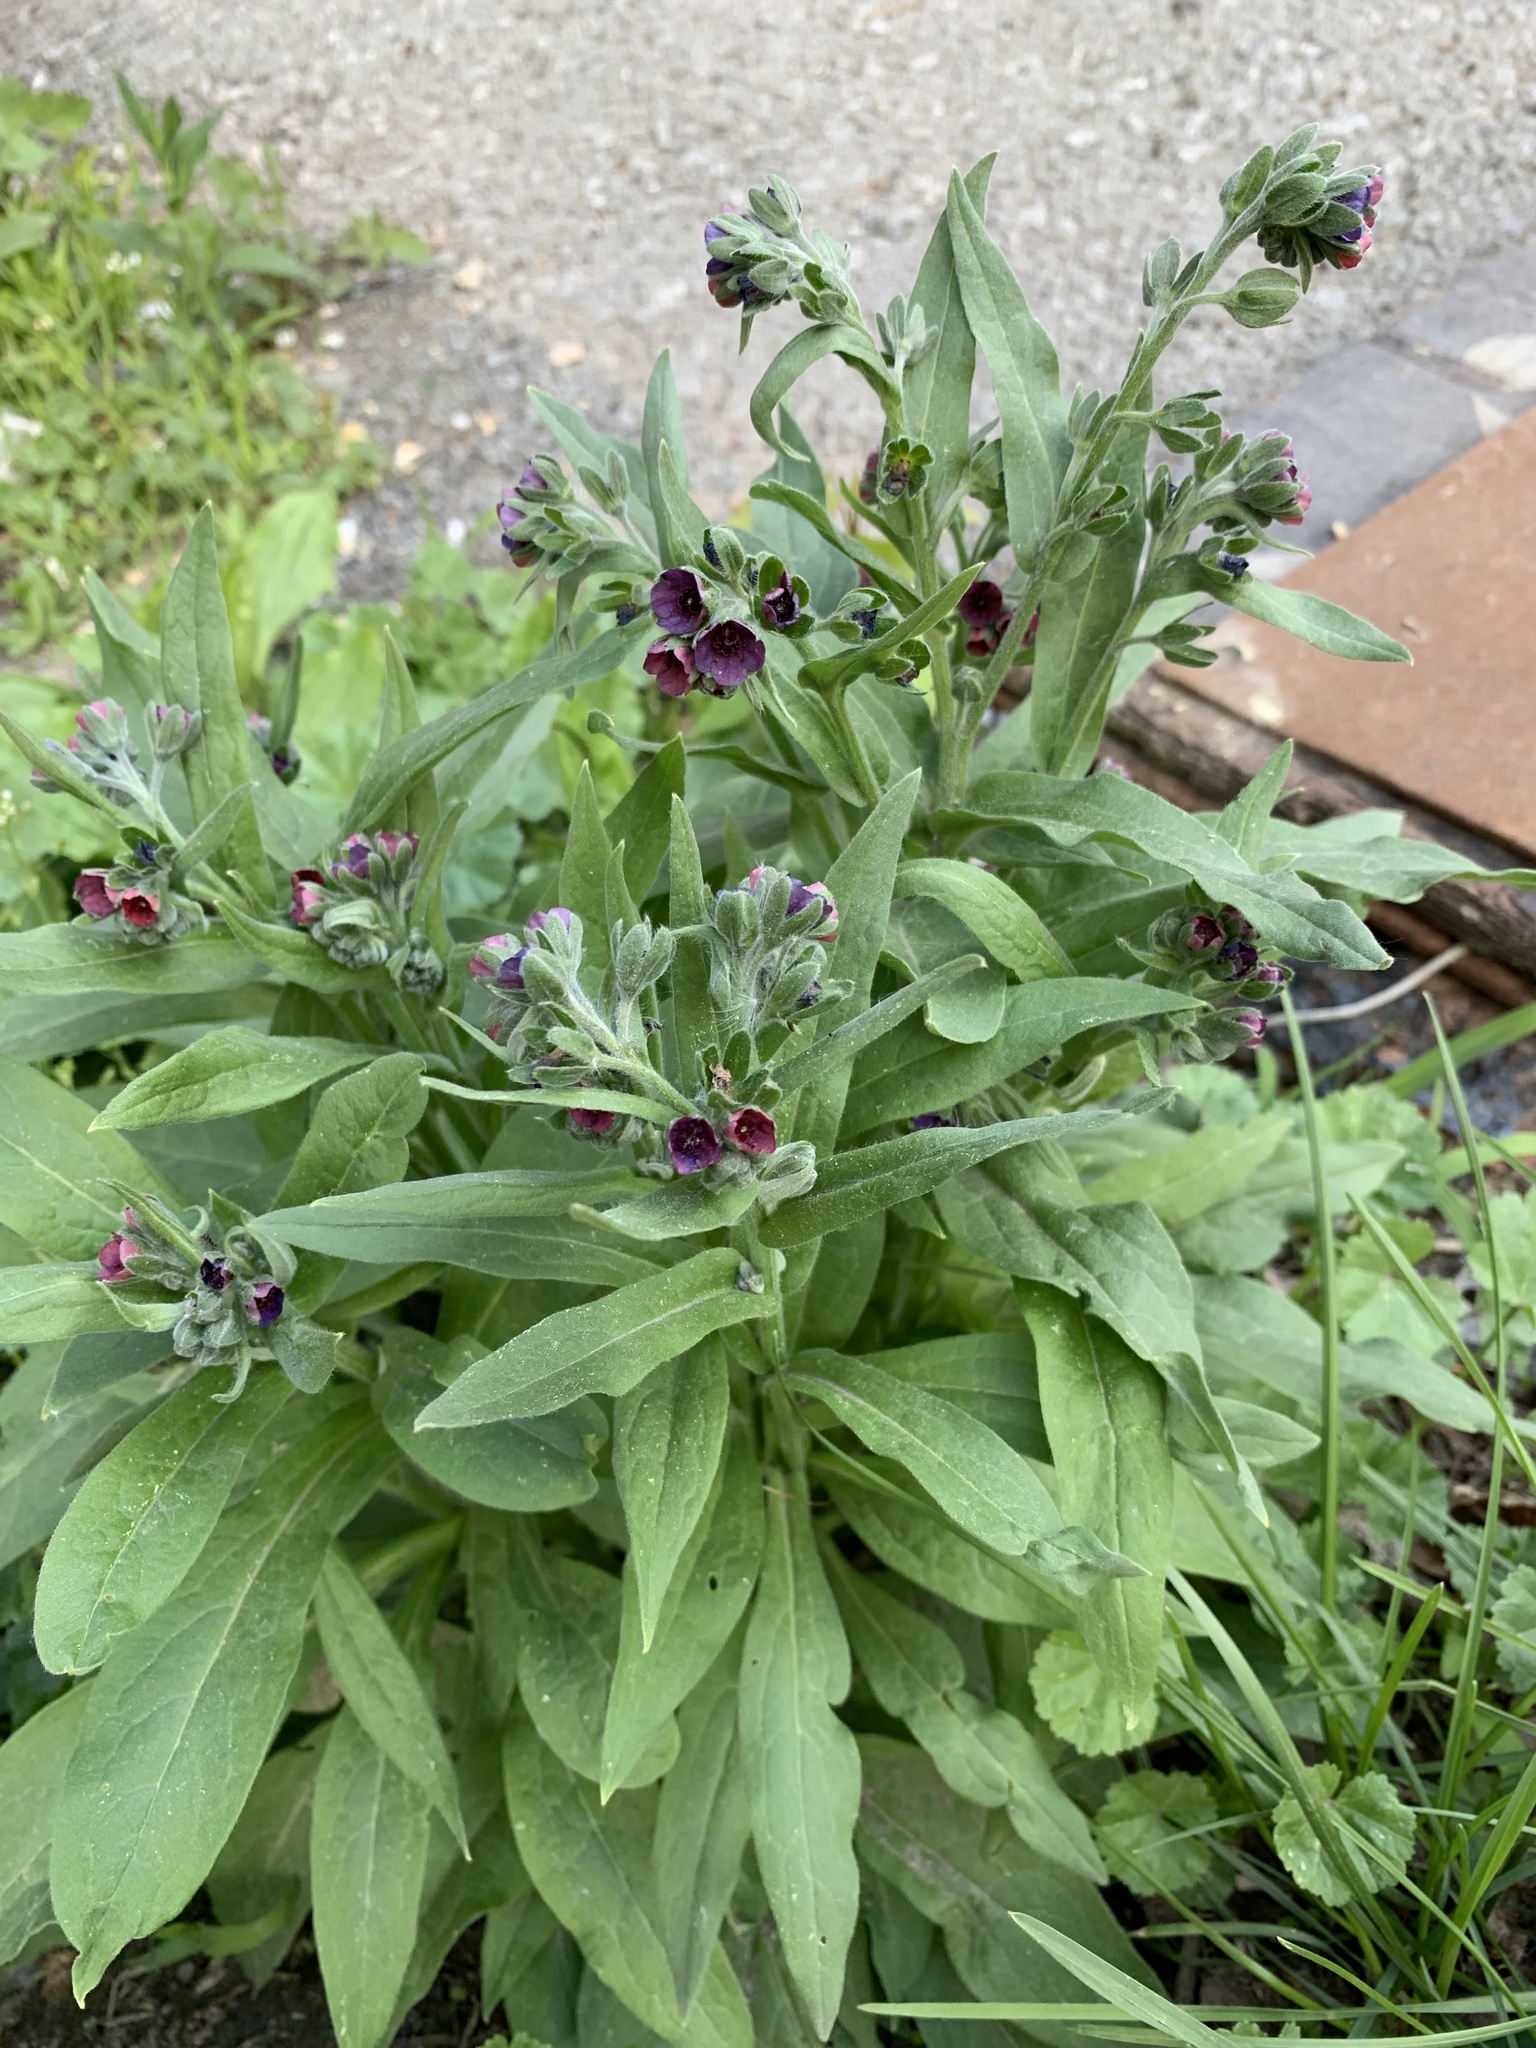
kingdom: Plantae
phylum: Tracheophyta
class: Magnoliopsida
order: Boraginales
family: Boraginaceae
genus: Cynoglossum
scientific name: Cynoglossum officinale
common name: Hound's-tongue
